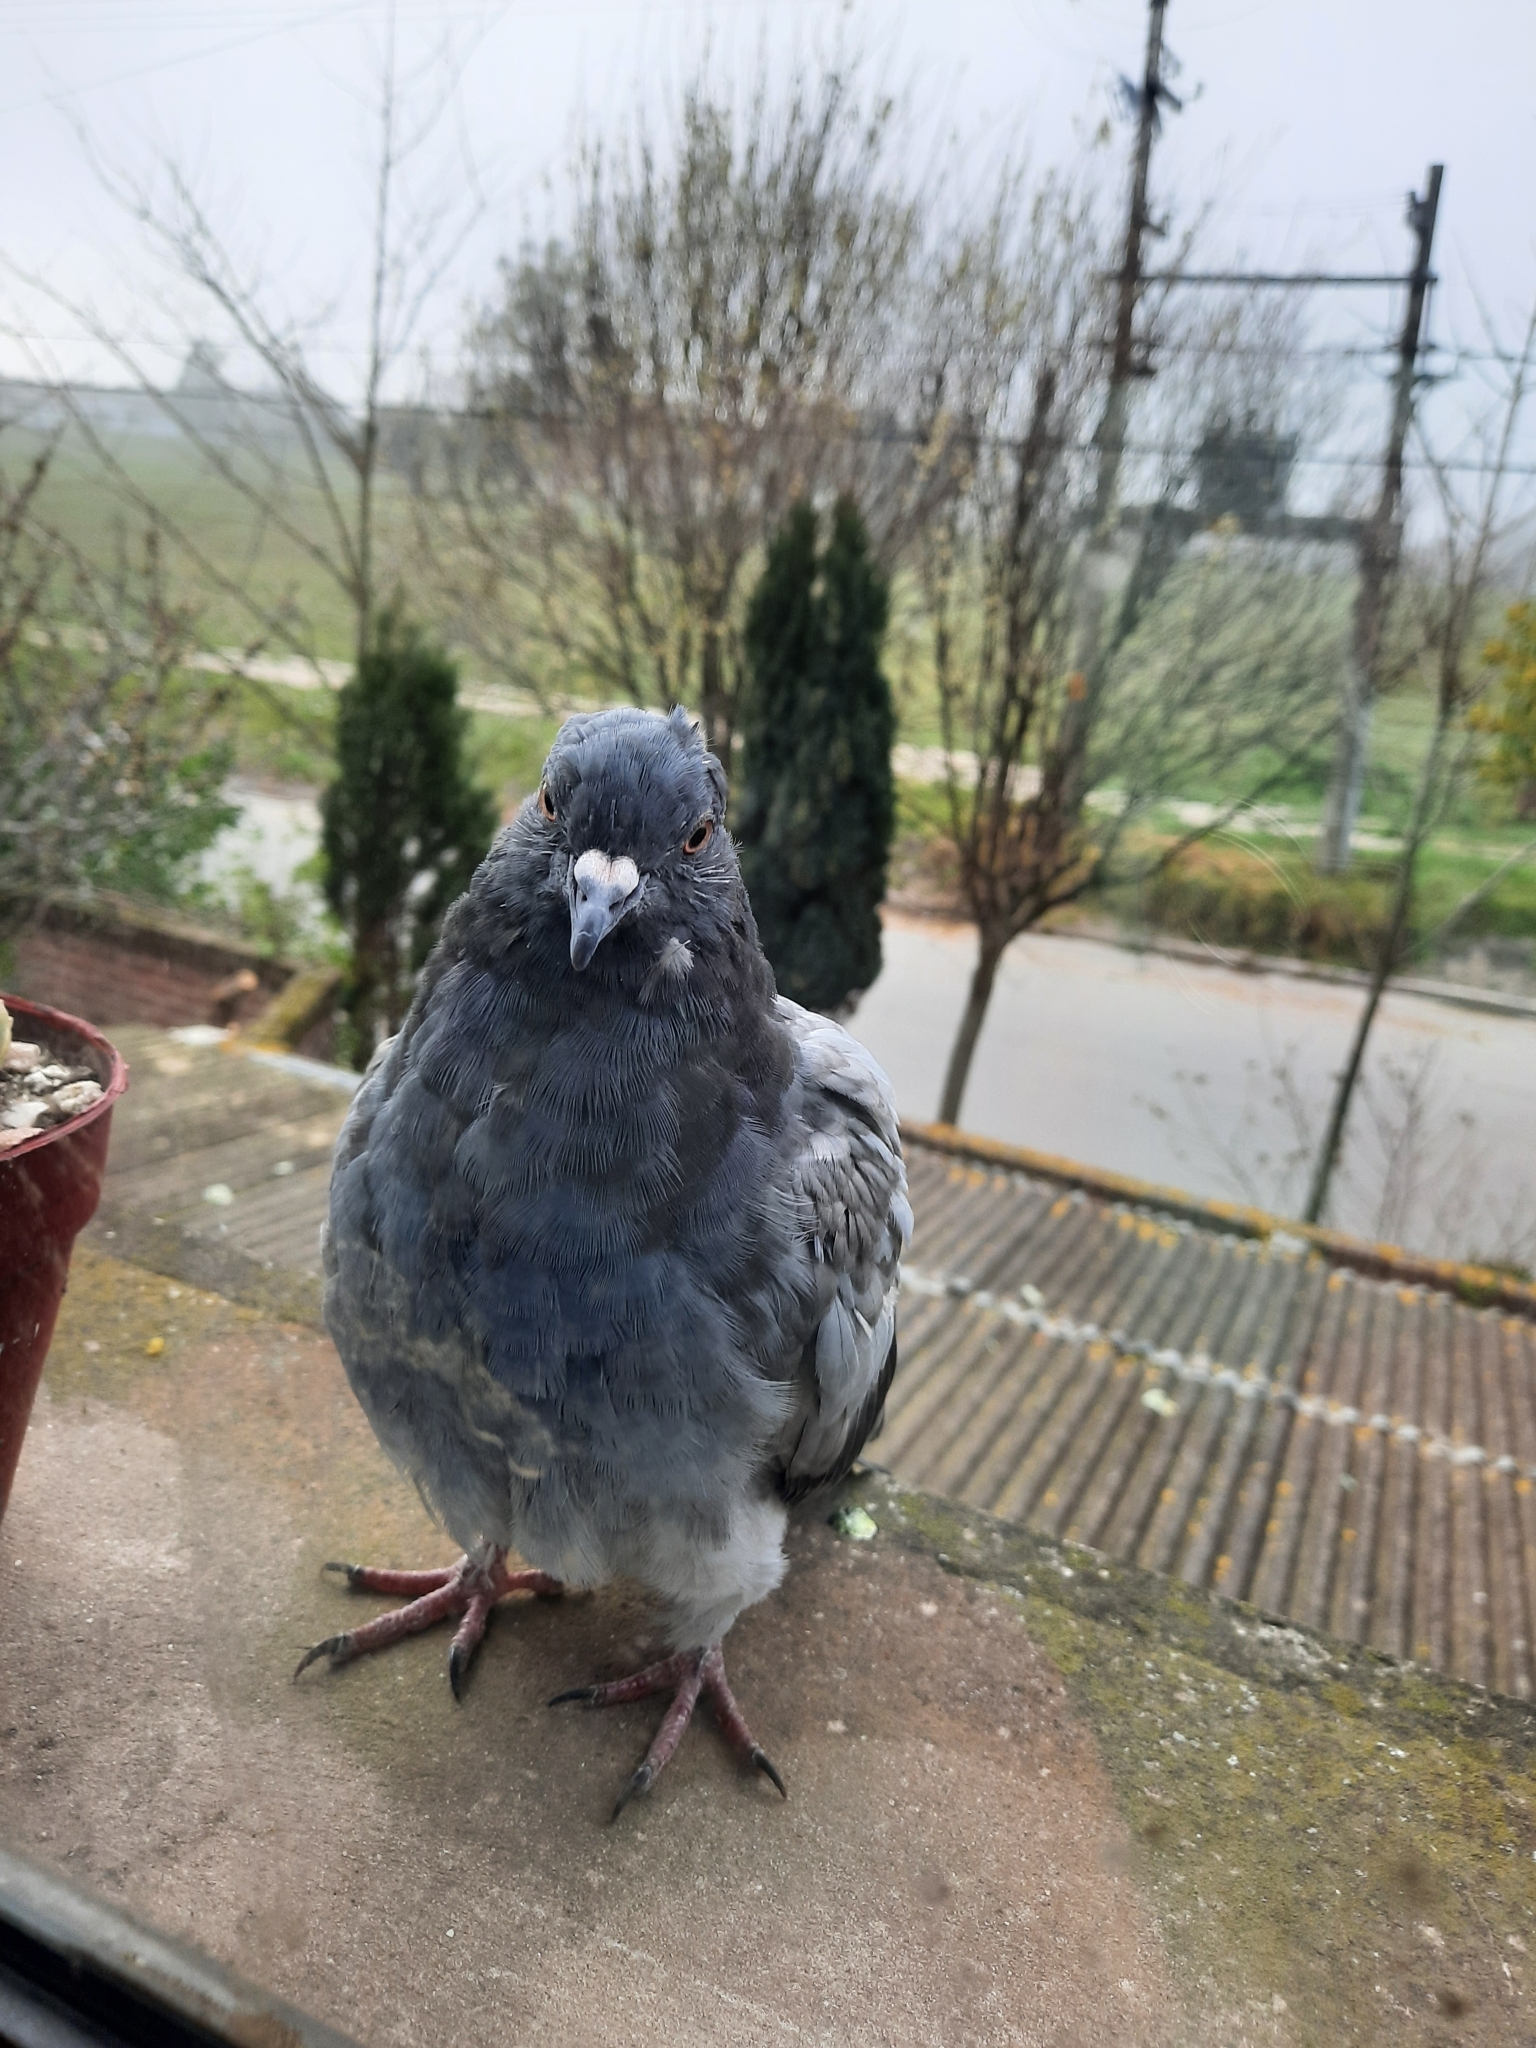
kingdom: Animalia
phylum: Chordata
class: Aves
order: Columbiformes
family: Columbidae
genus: Columba
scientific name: Columba livia
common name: Rock pigeon
